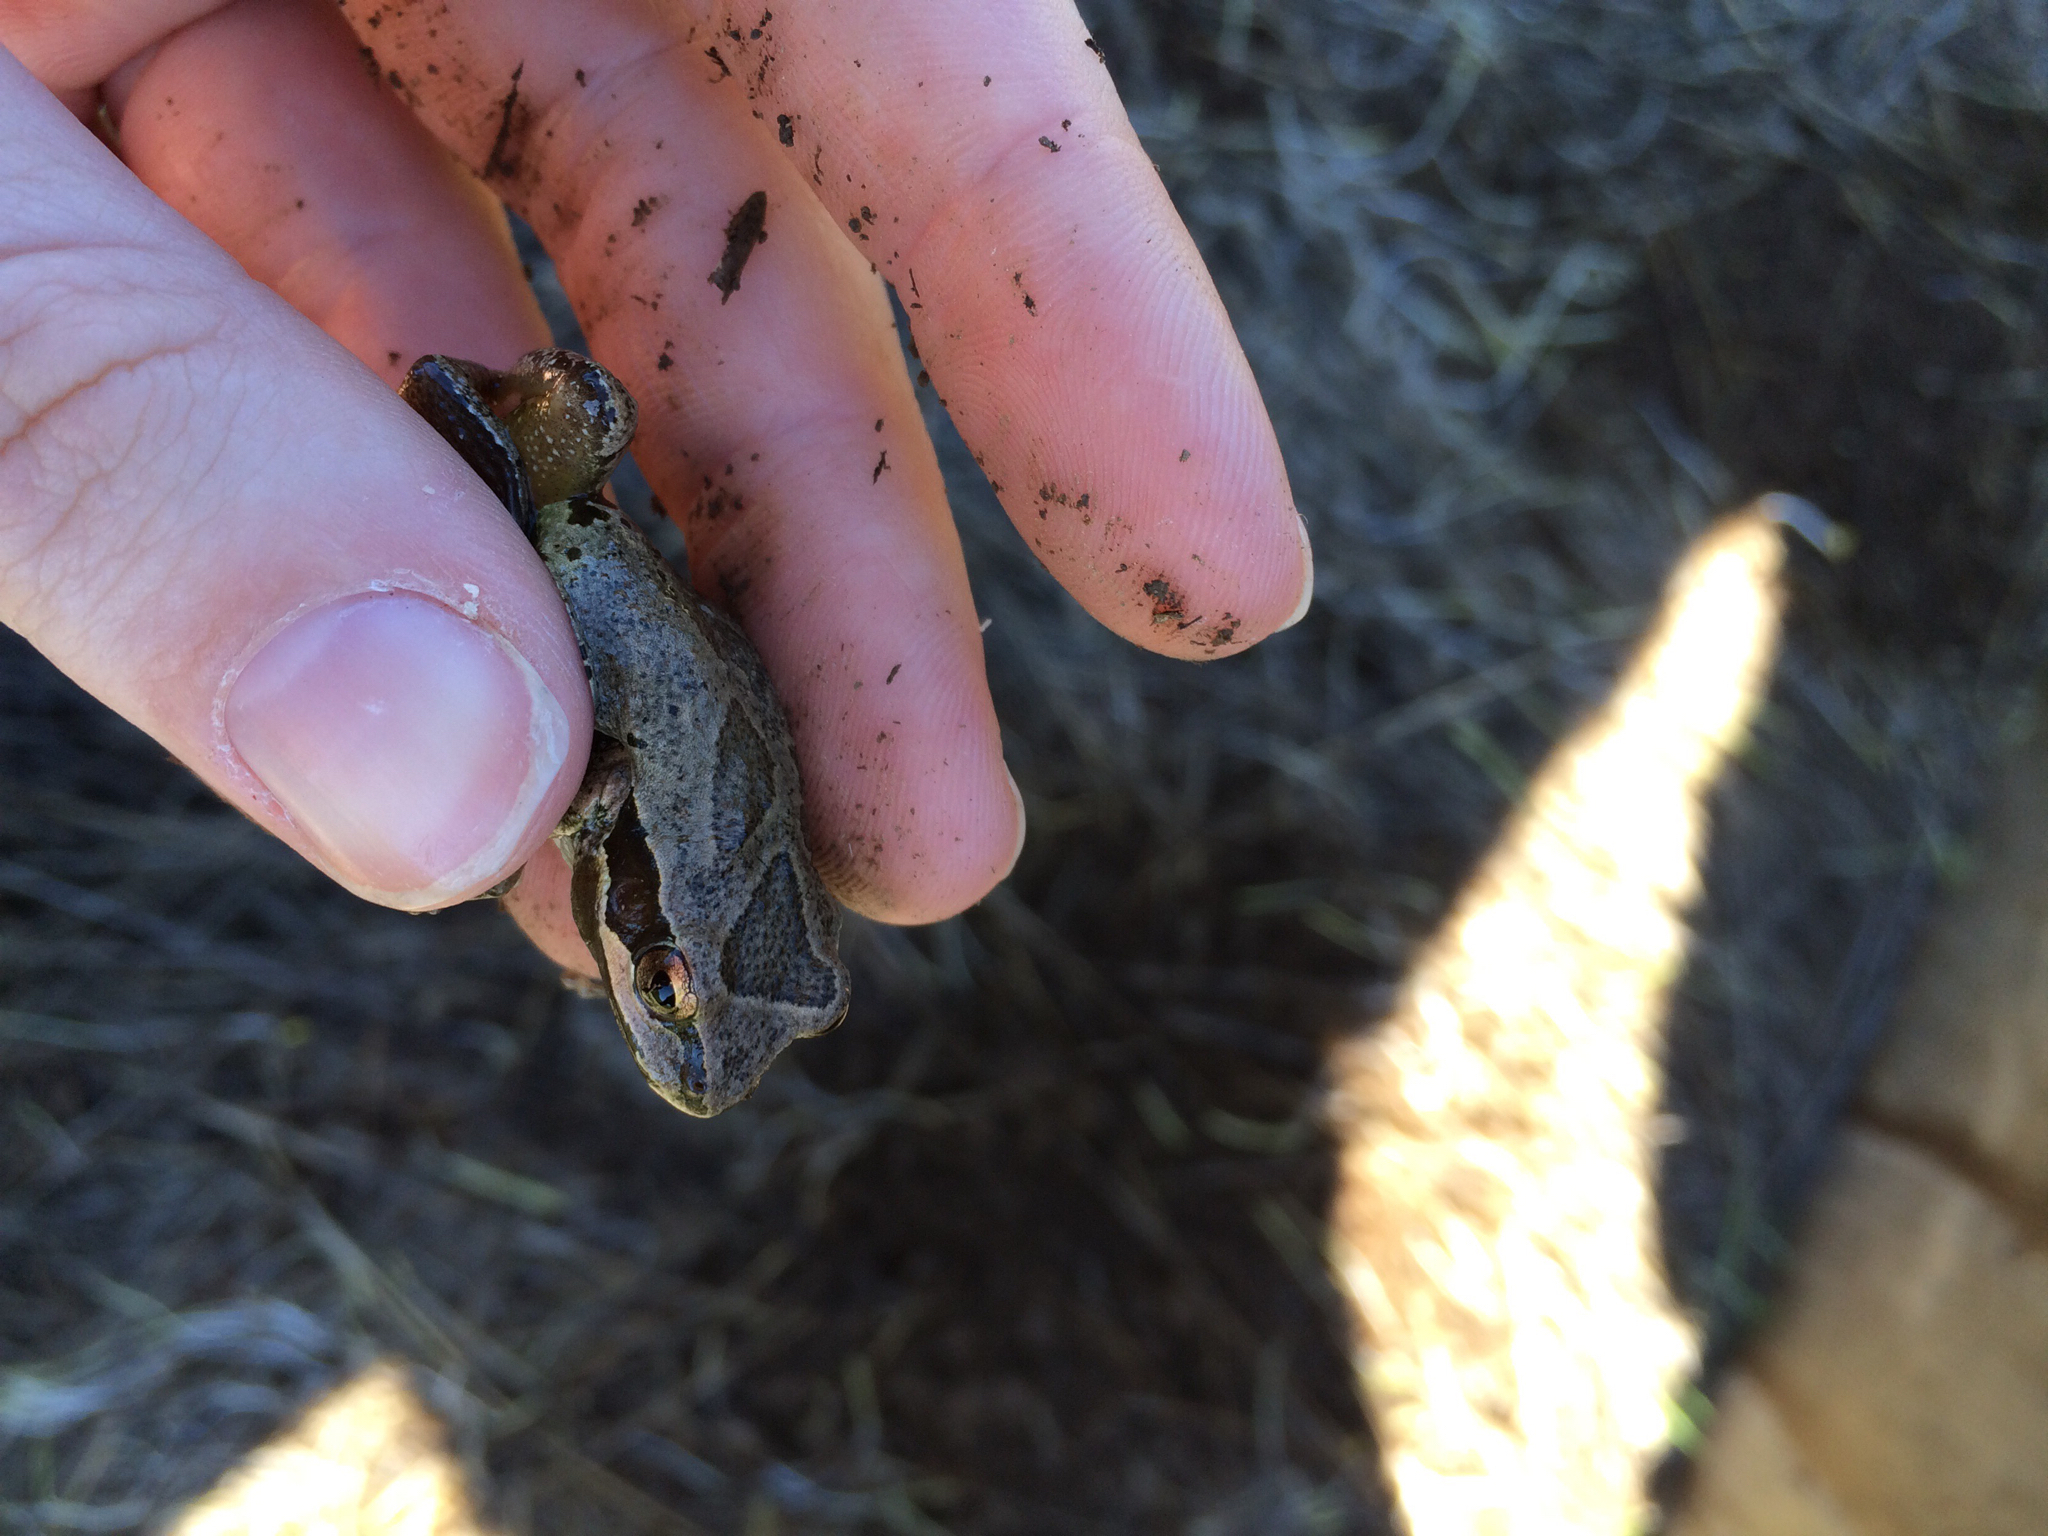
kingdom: Animalia
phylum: Chordata
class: Amphibia
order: Anura
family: Hylidae
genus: Pseudacris
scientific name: Pseudacris regilla
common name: Pacific chorus frog
